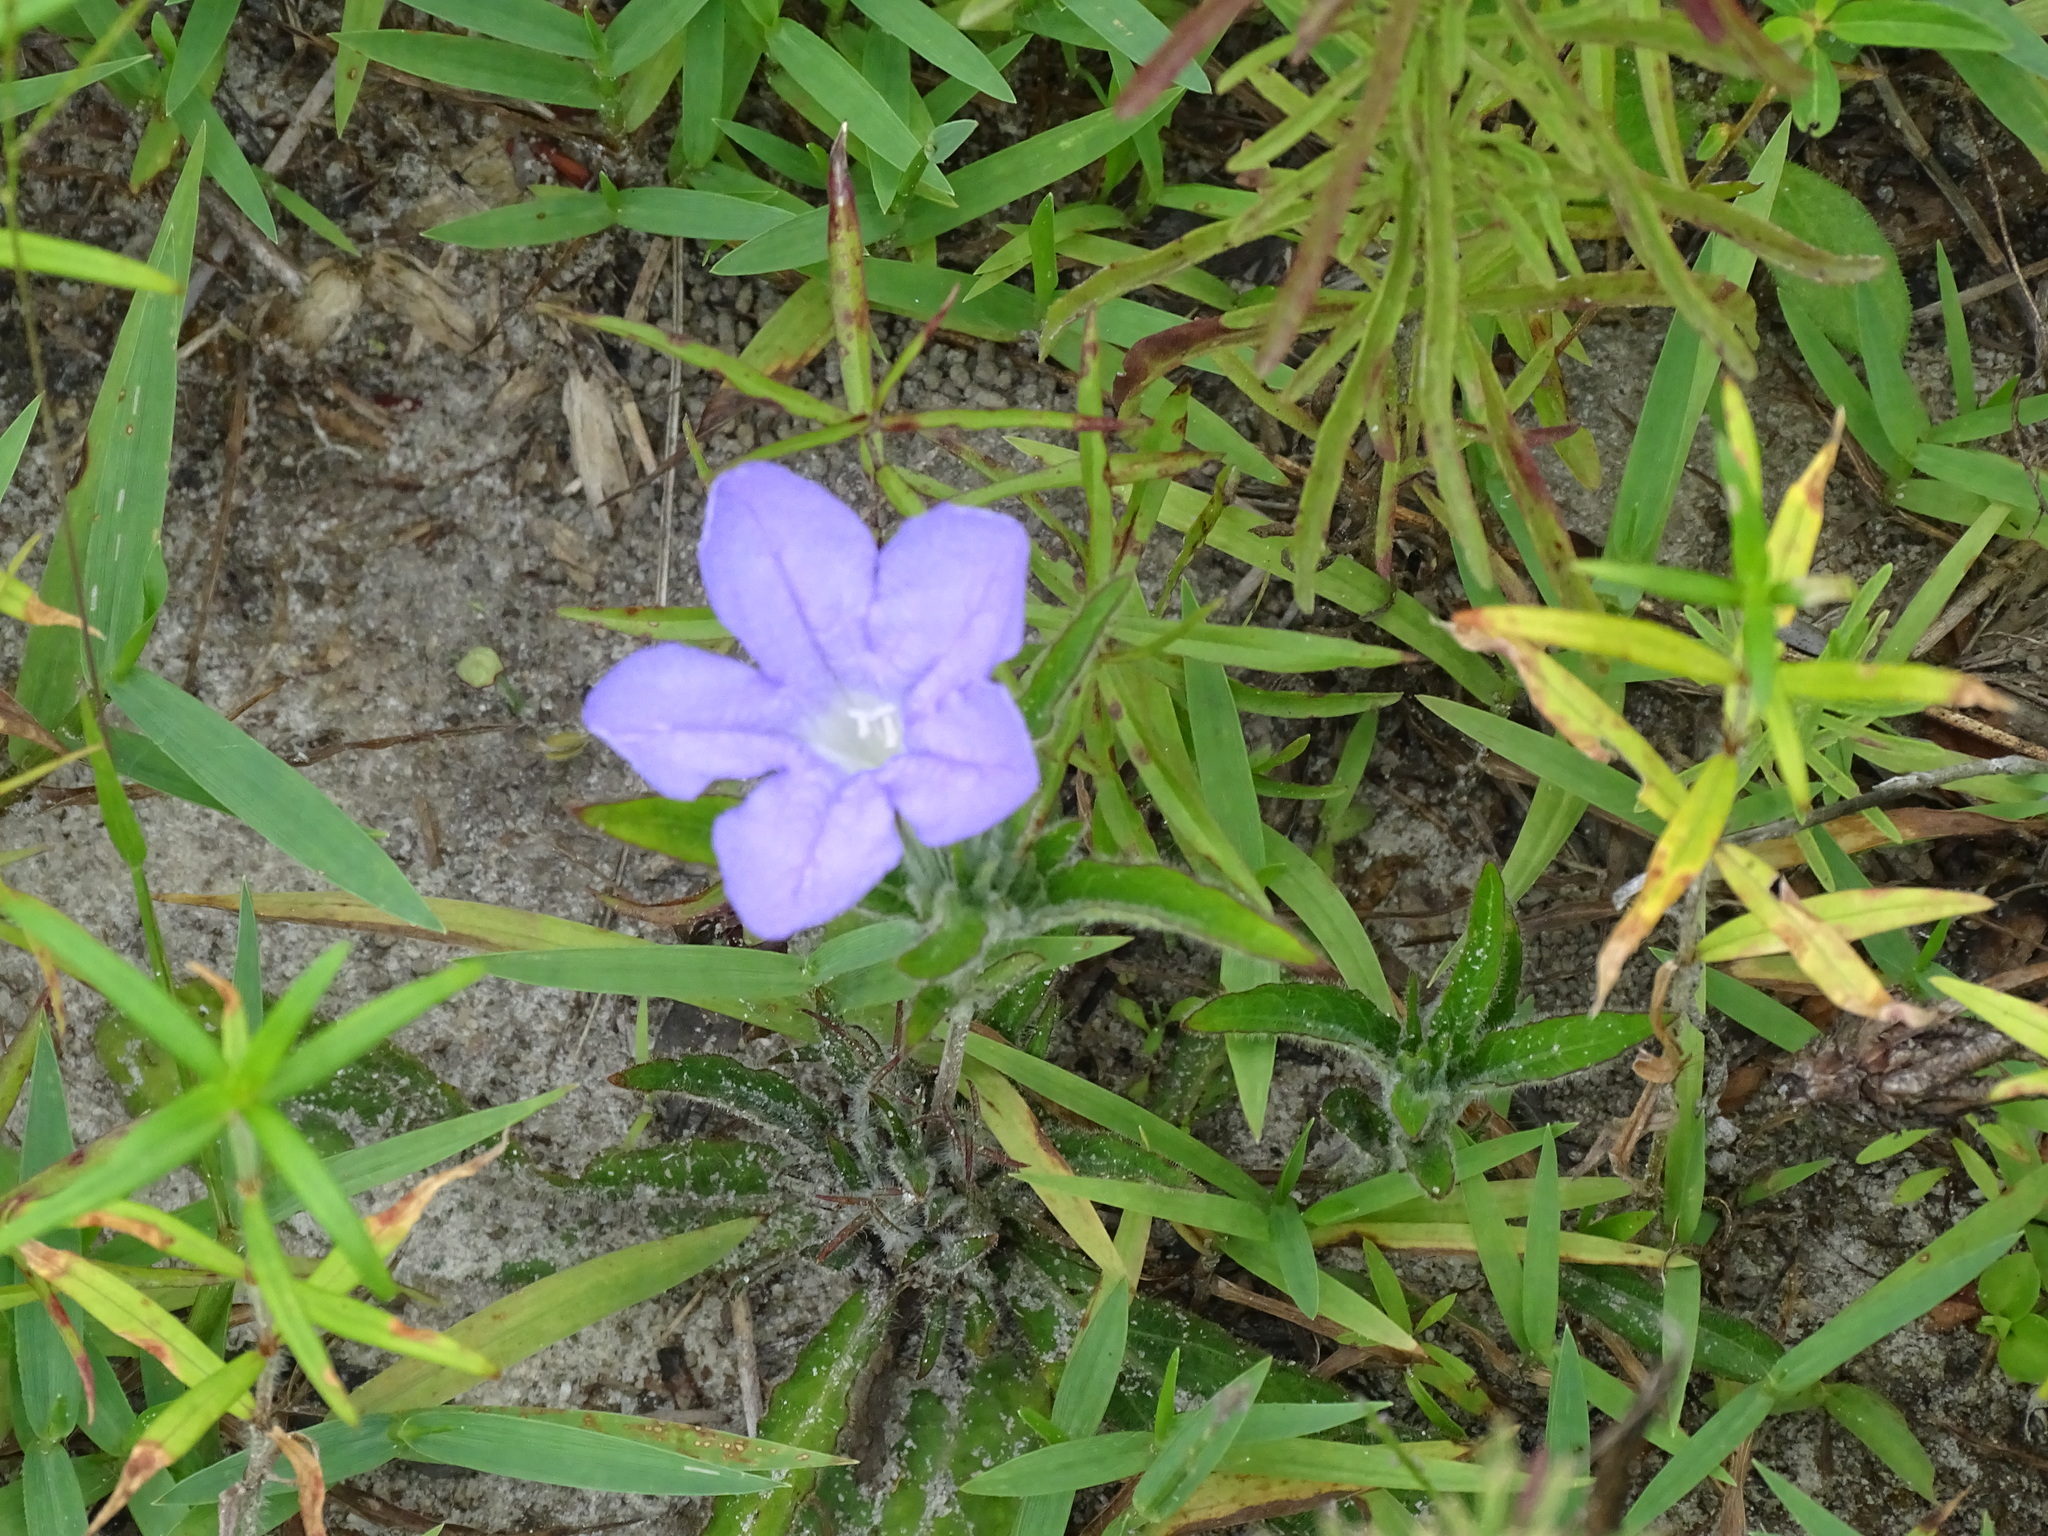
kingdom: Plantae
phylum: Tracheophyta
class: Magnoliopsida
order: Lamiales
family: Acanthaceae
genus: Ruellia
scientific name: Ruellia caroliniensis
